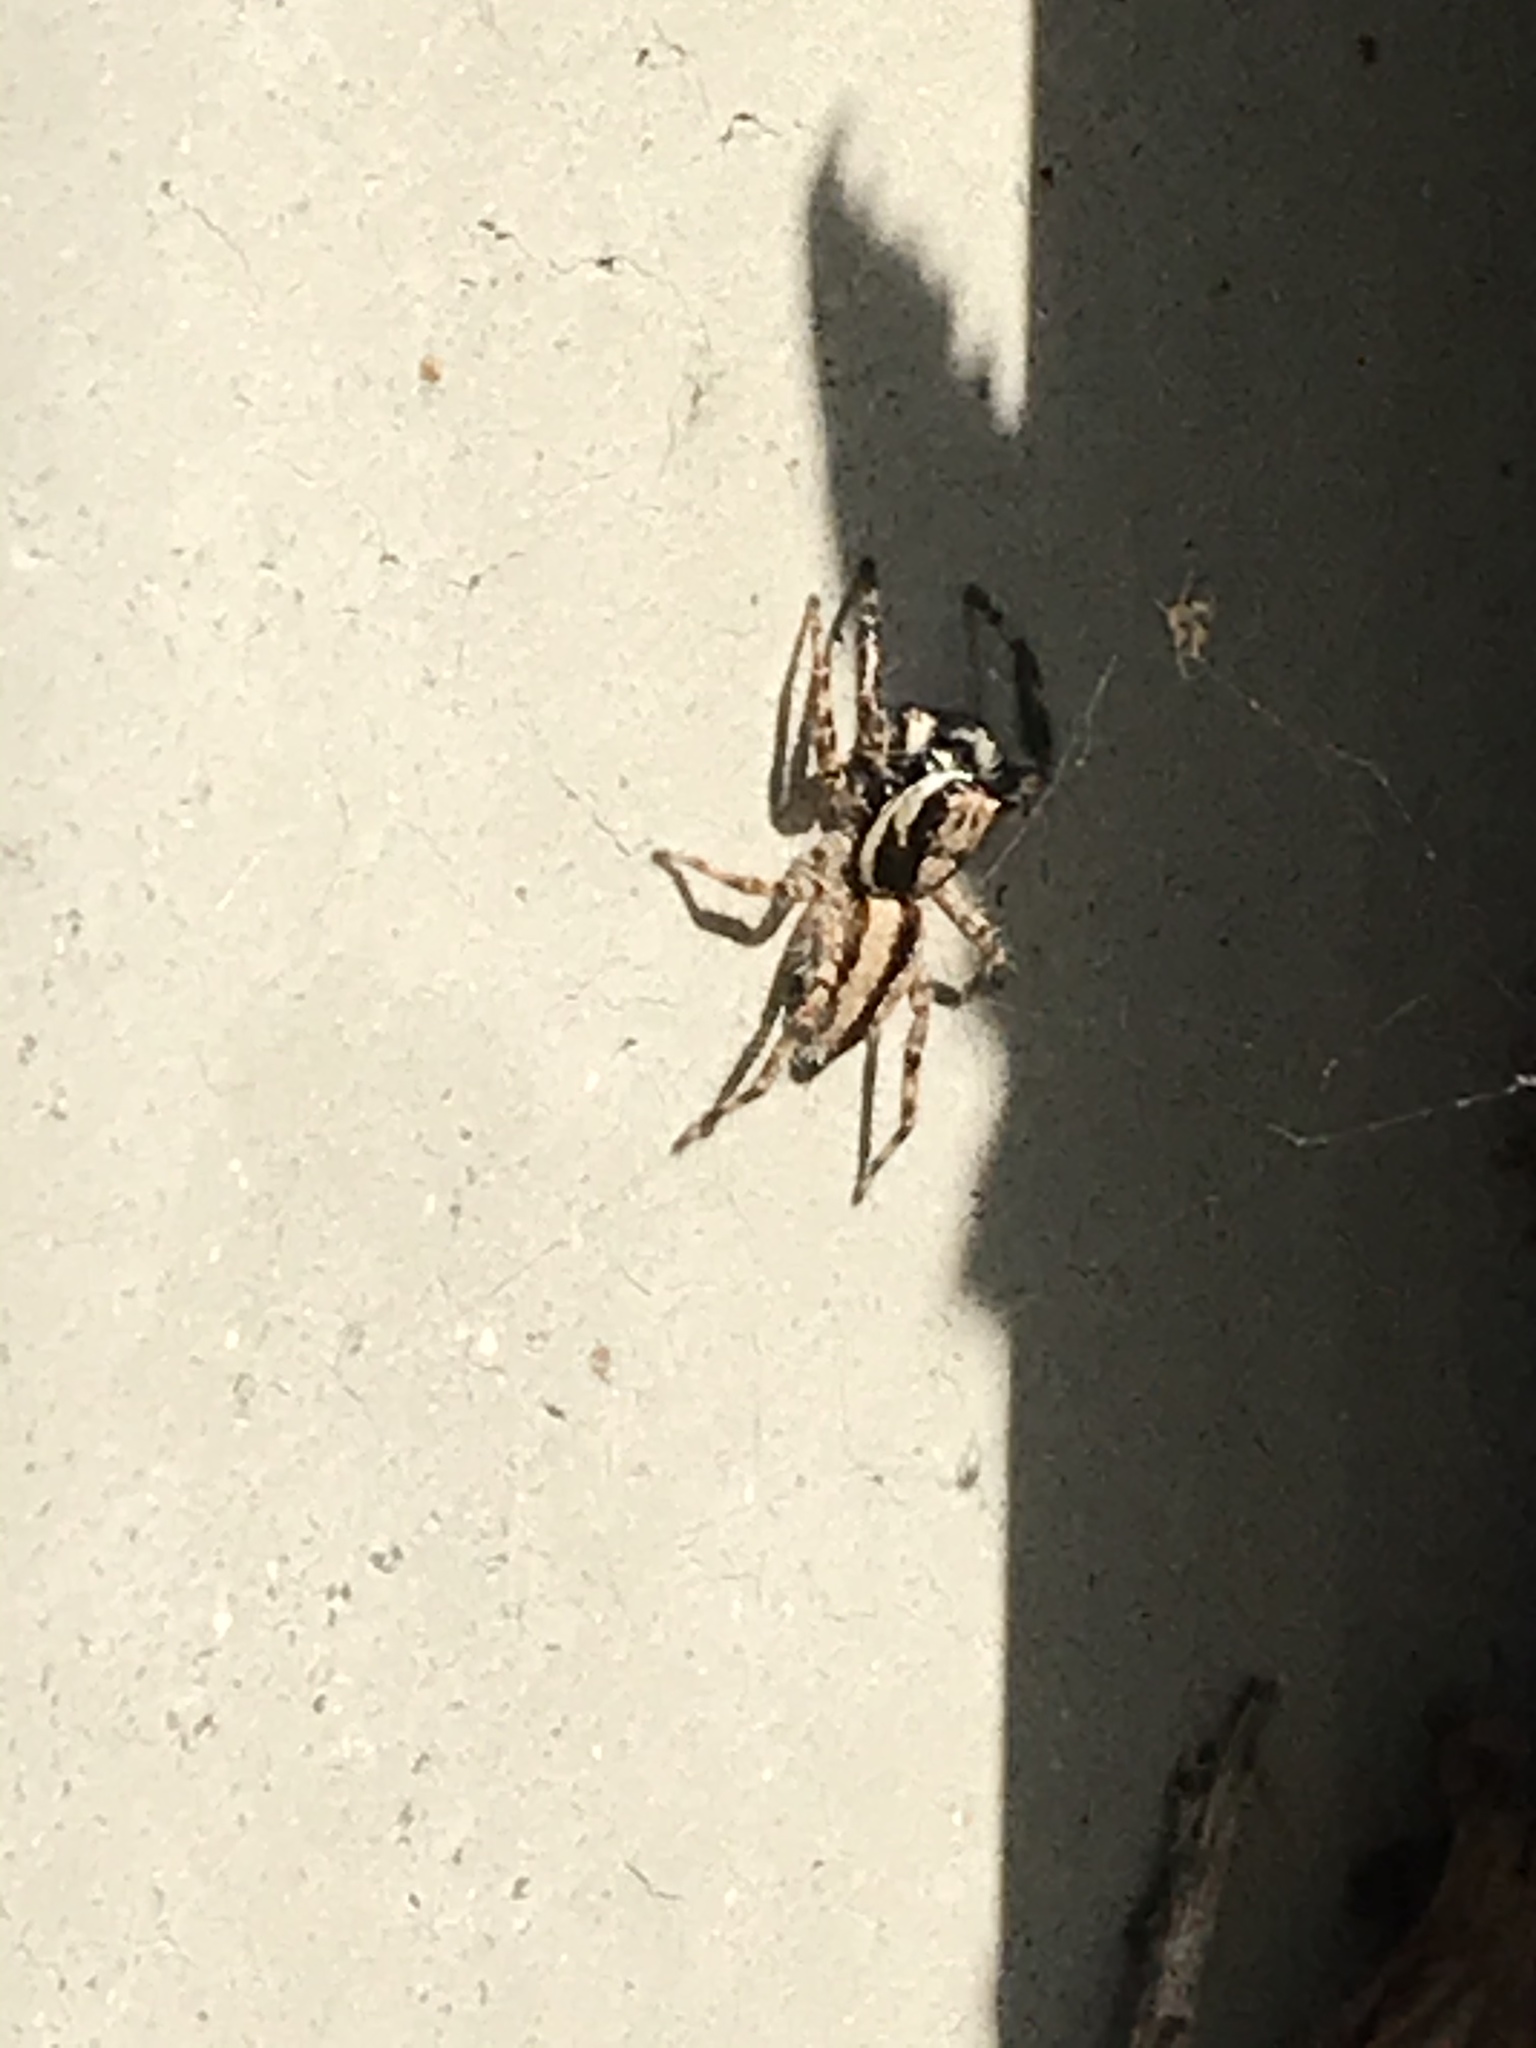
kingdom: Animalia
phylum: Arthropoda
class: Arachnida
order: Araneae
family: Salticidae
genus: Menemerus
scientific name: Menemerus bivittatus
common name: Gray wall jumper
